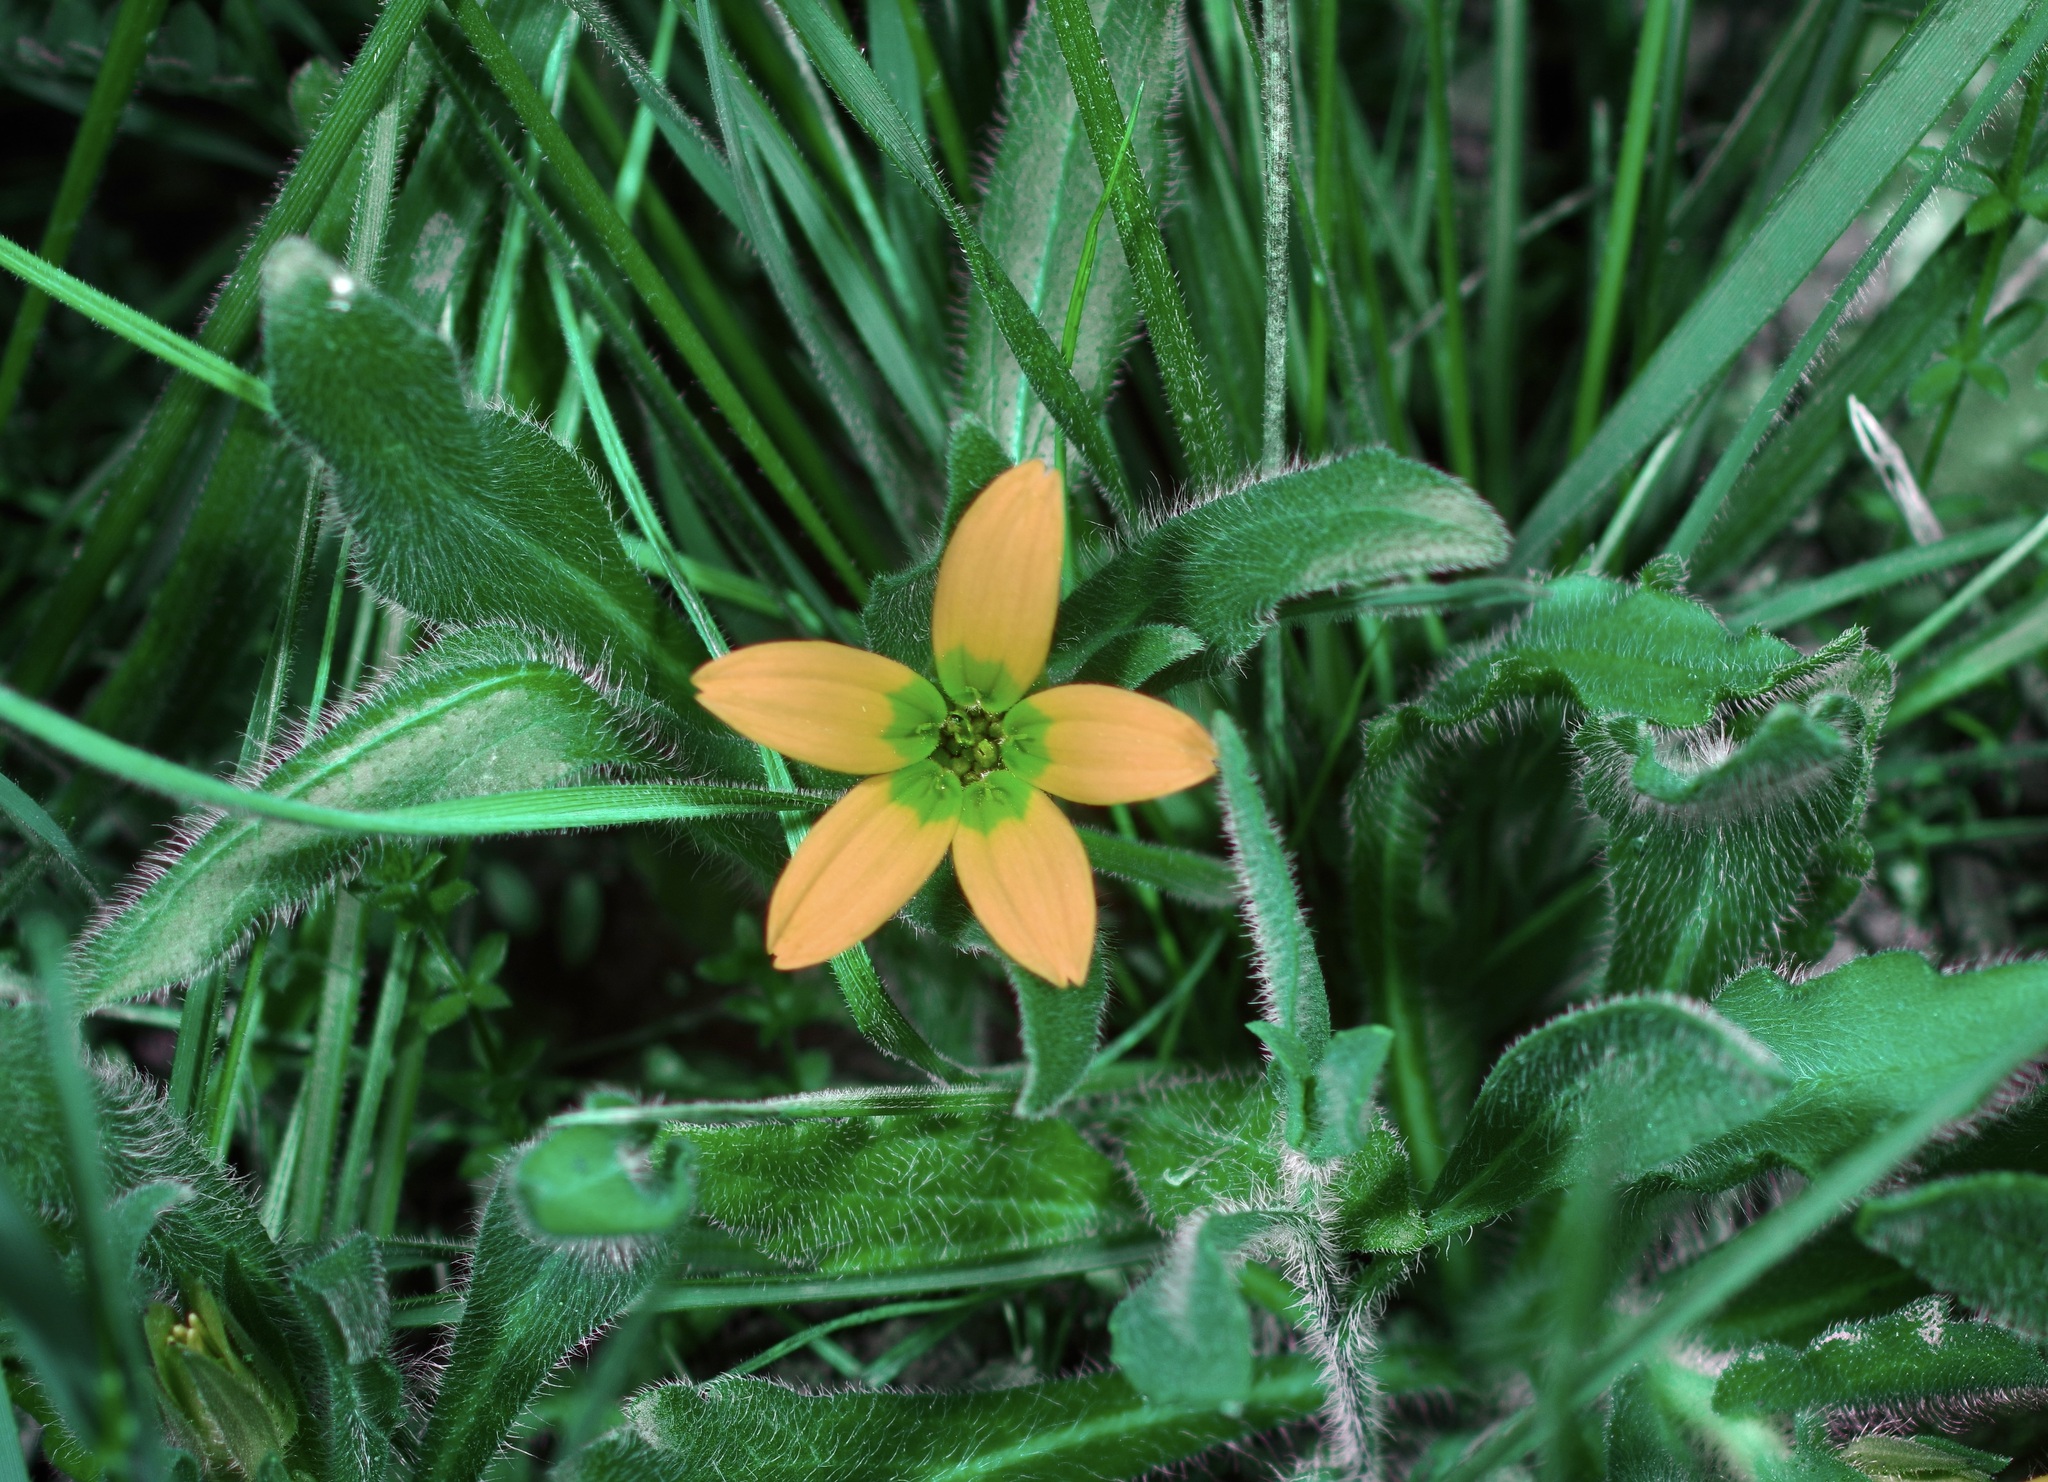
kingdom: Plantae
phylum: Tracheophyta
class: Magnoliopsida
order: Asterales
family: Asteraceae
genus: Lindheimera
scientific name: Lindheimera texana
